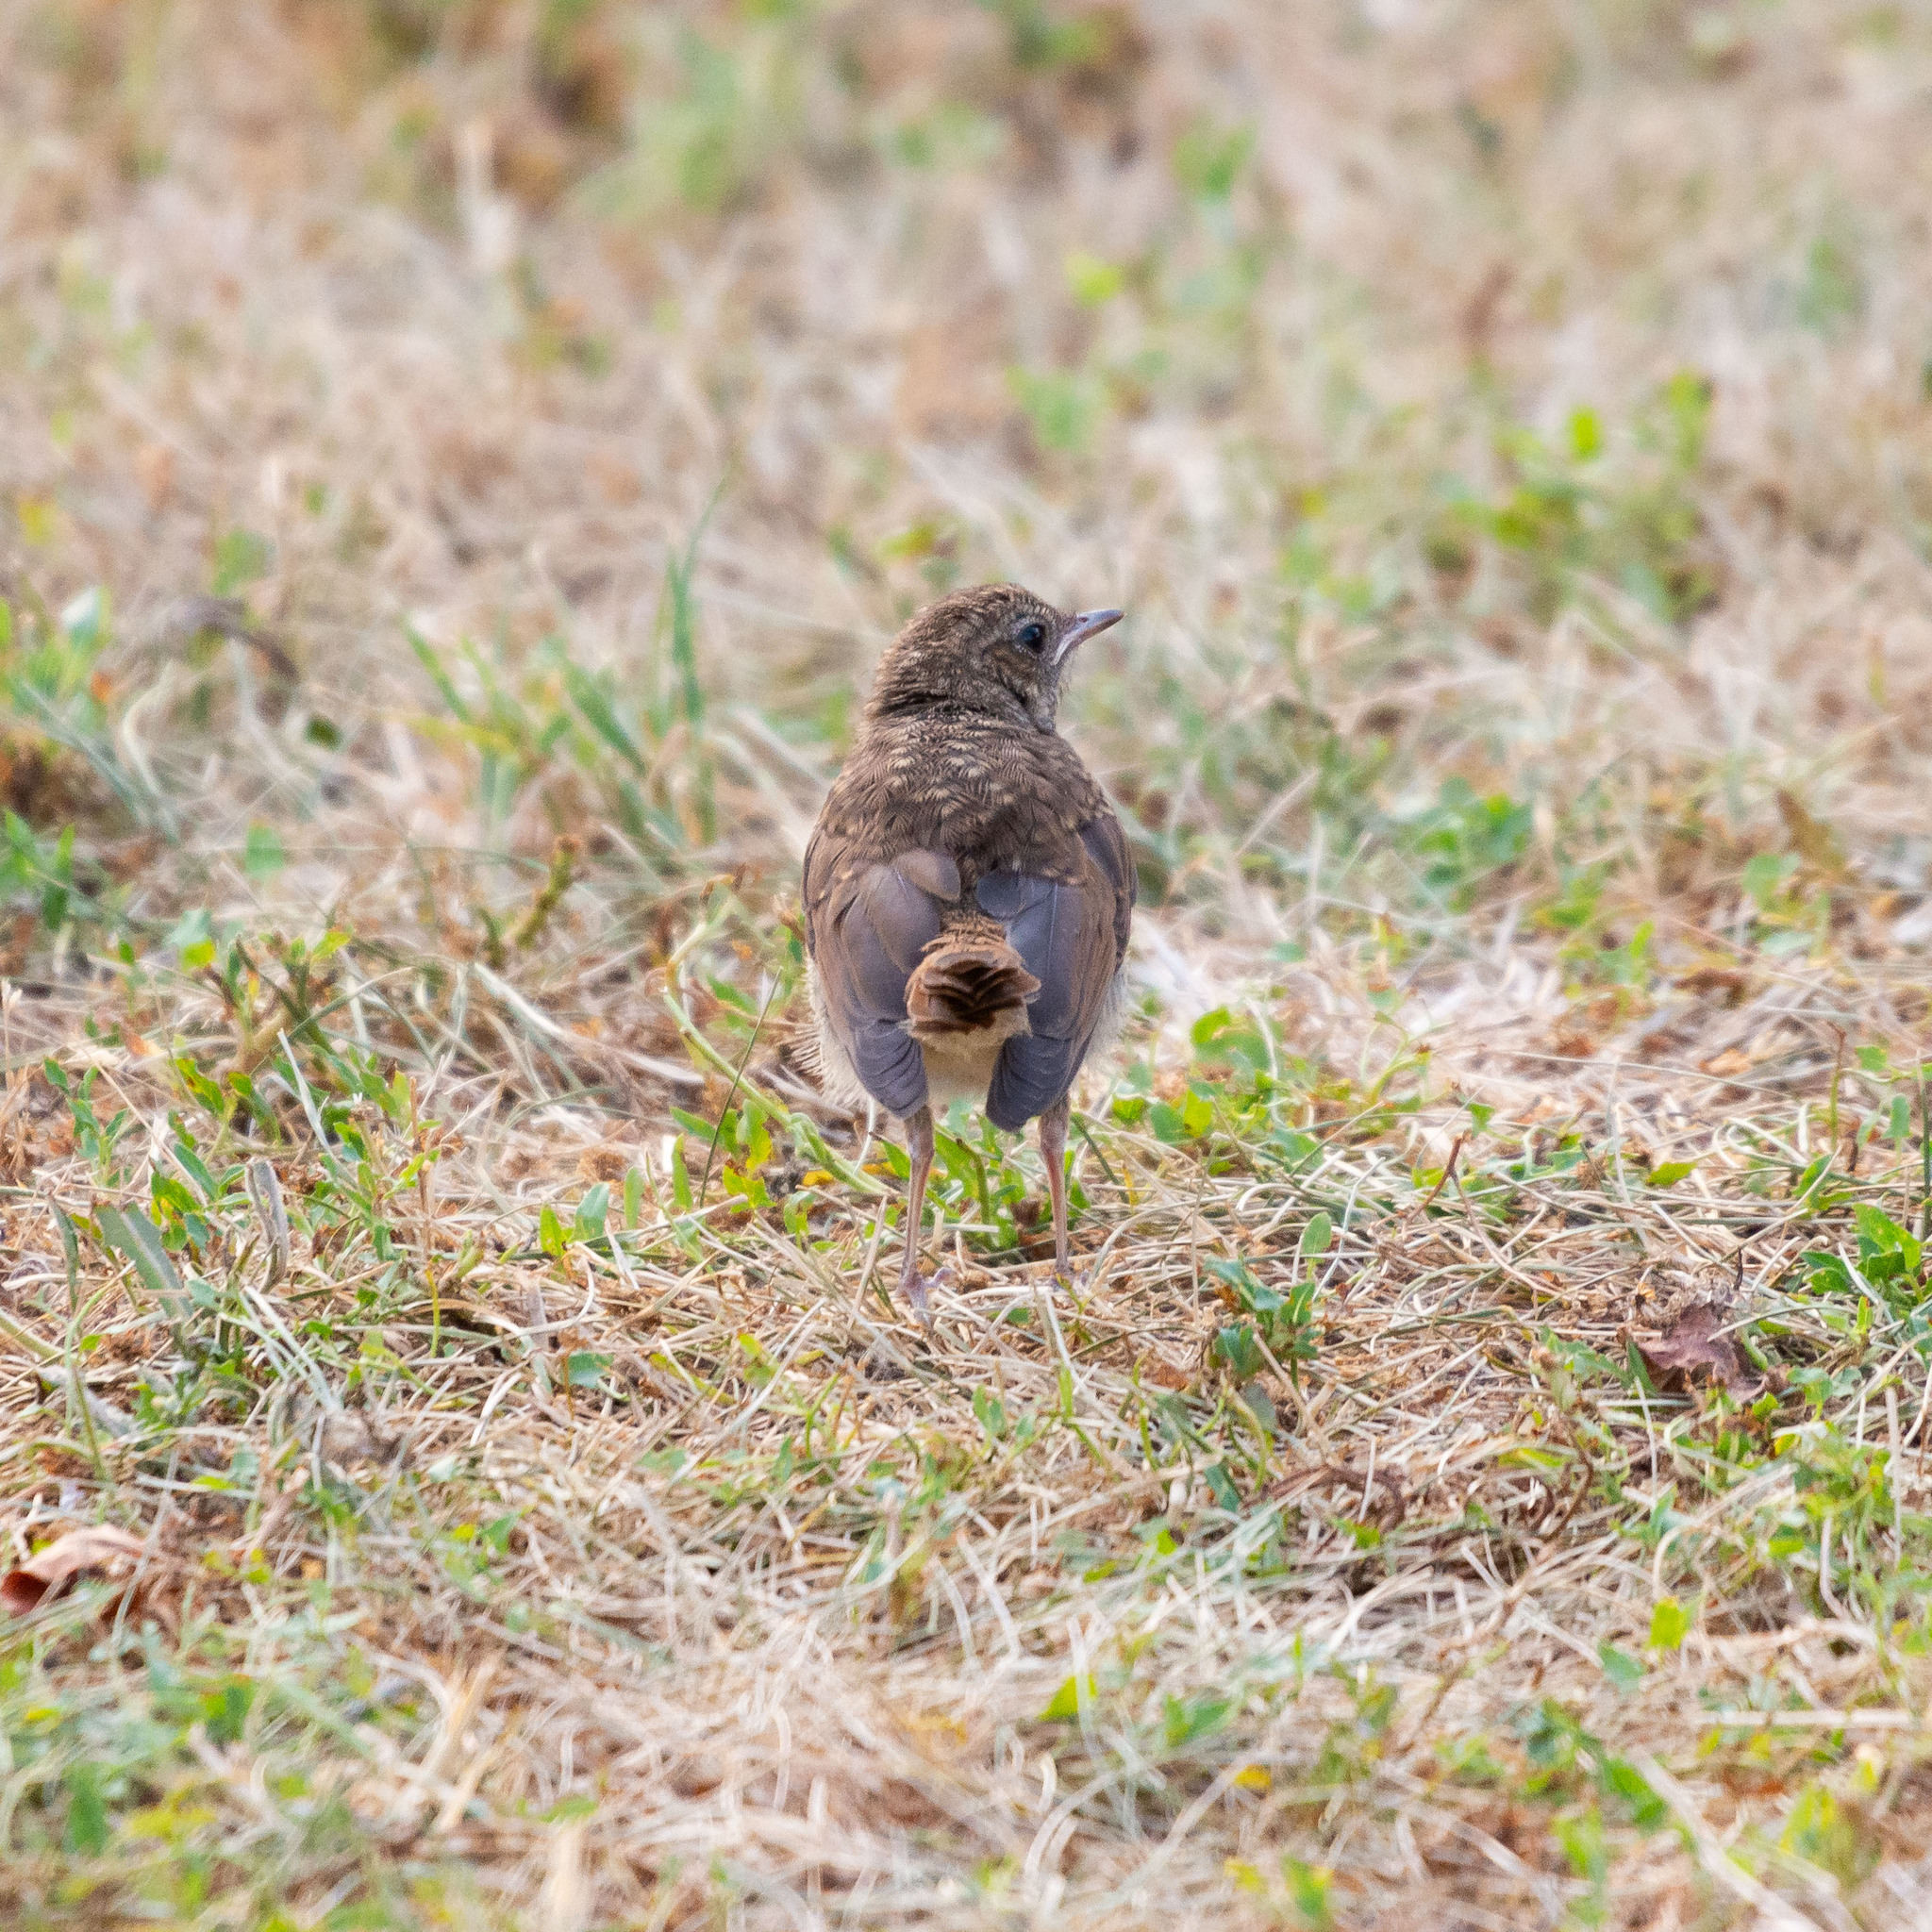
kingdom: Animalia
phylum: Chordata
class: Aves
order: Passeriformes
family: Muscicapidae
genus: Luscinia
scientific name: Luscinia megarhynchos
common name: Common nightingale
